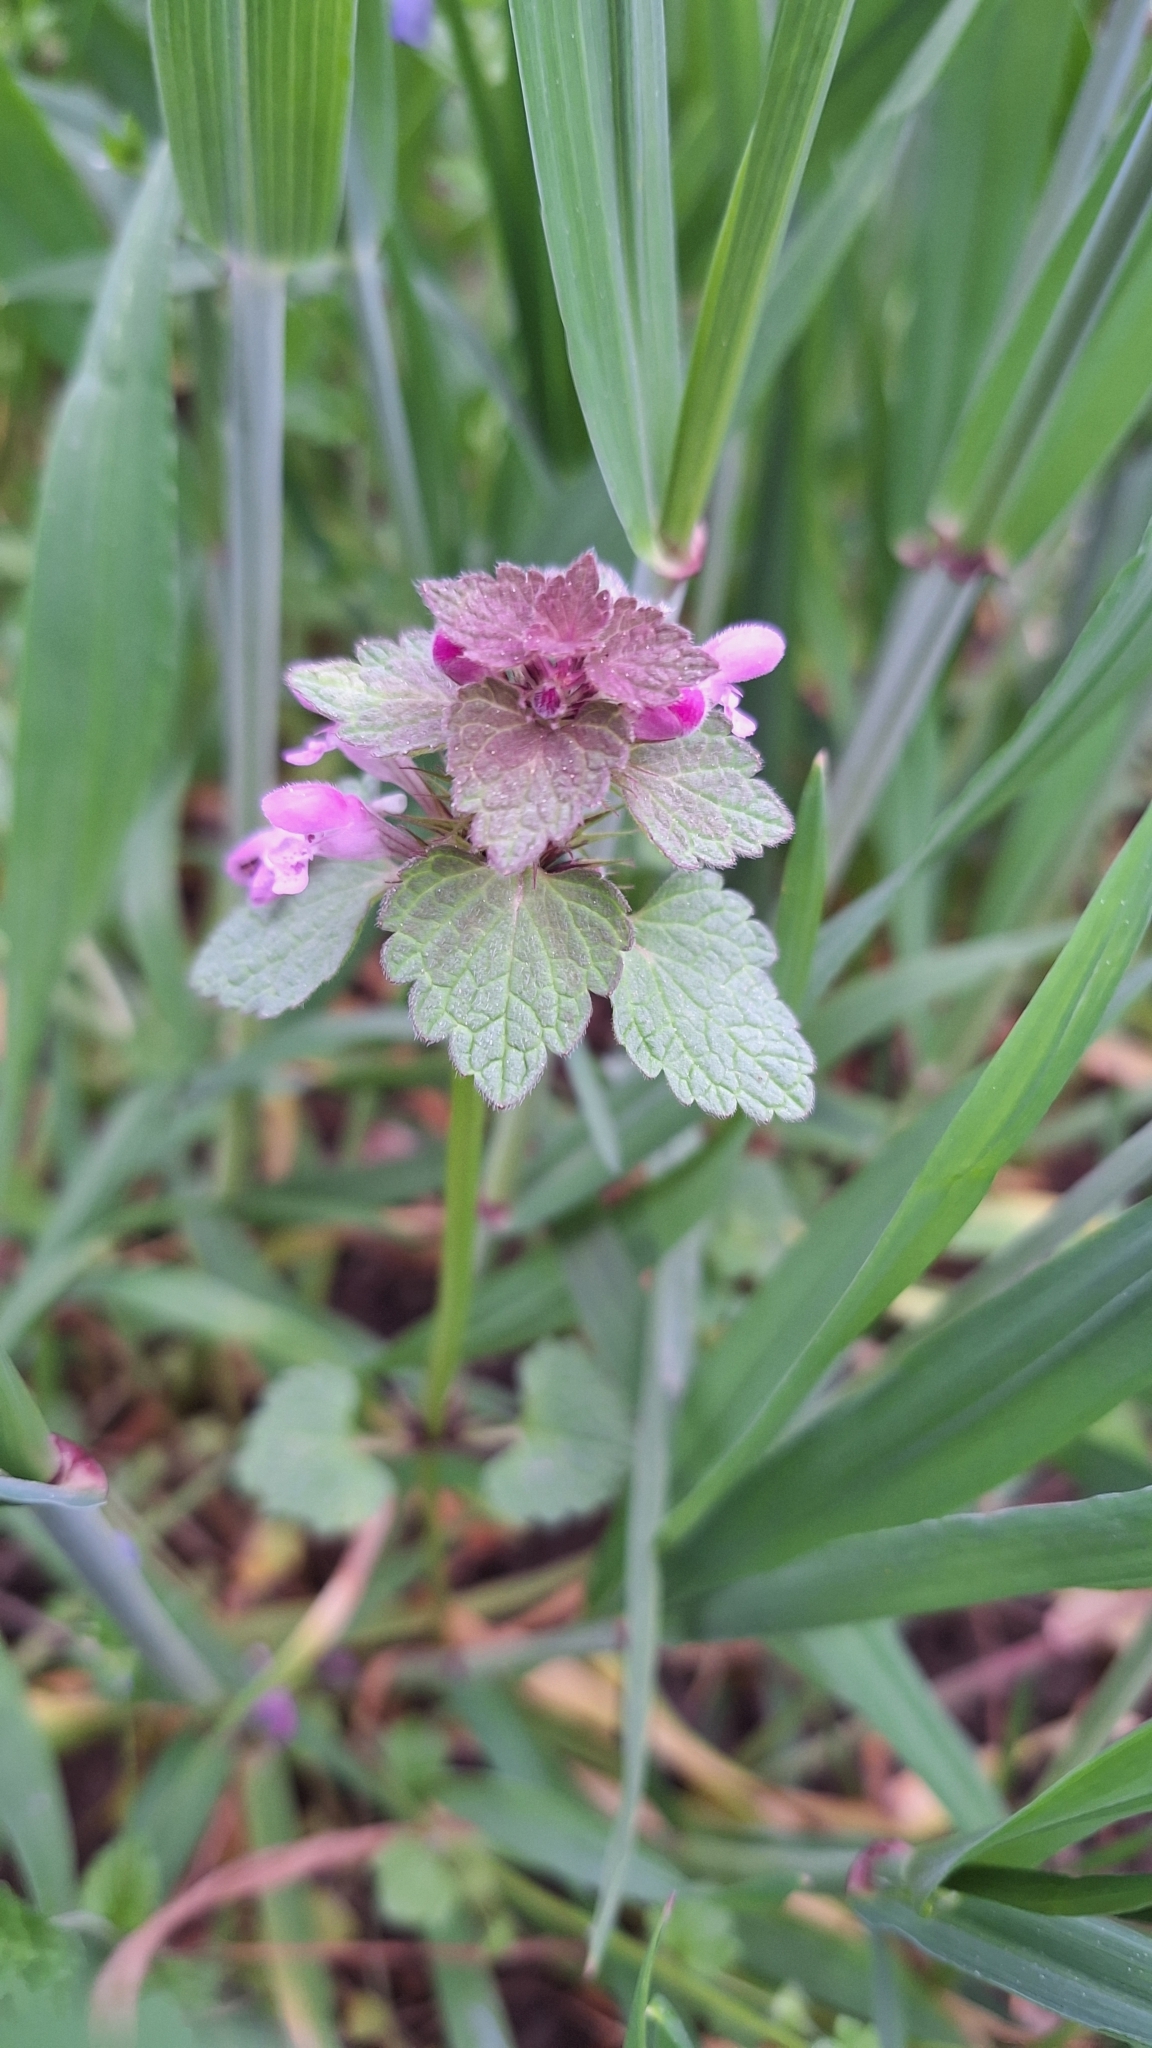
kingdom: Plantae
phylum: Tracheophyta
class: Magnoliopsida
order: Lamiales
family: Lamiaceae
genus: Lamium
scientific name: Lamium purpureum
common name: Red dead-nettle
